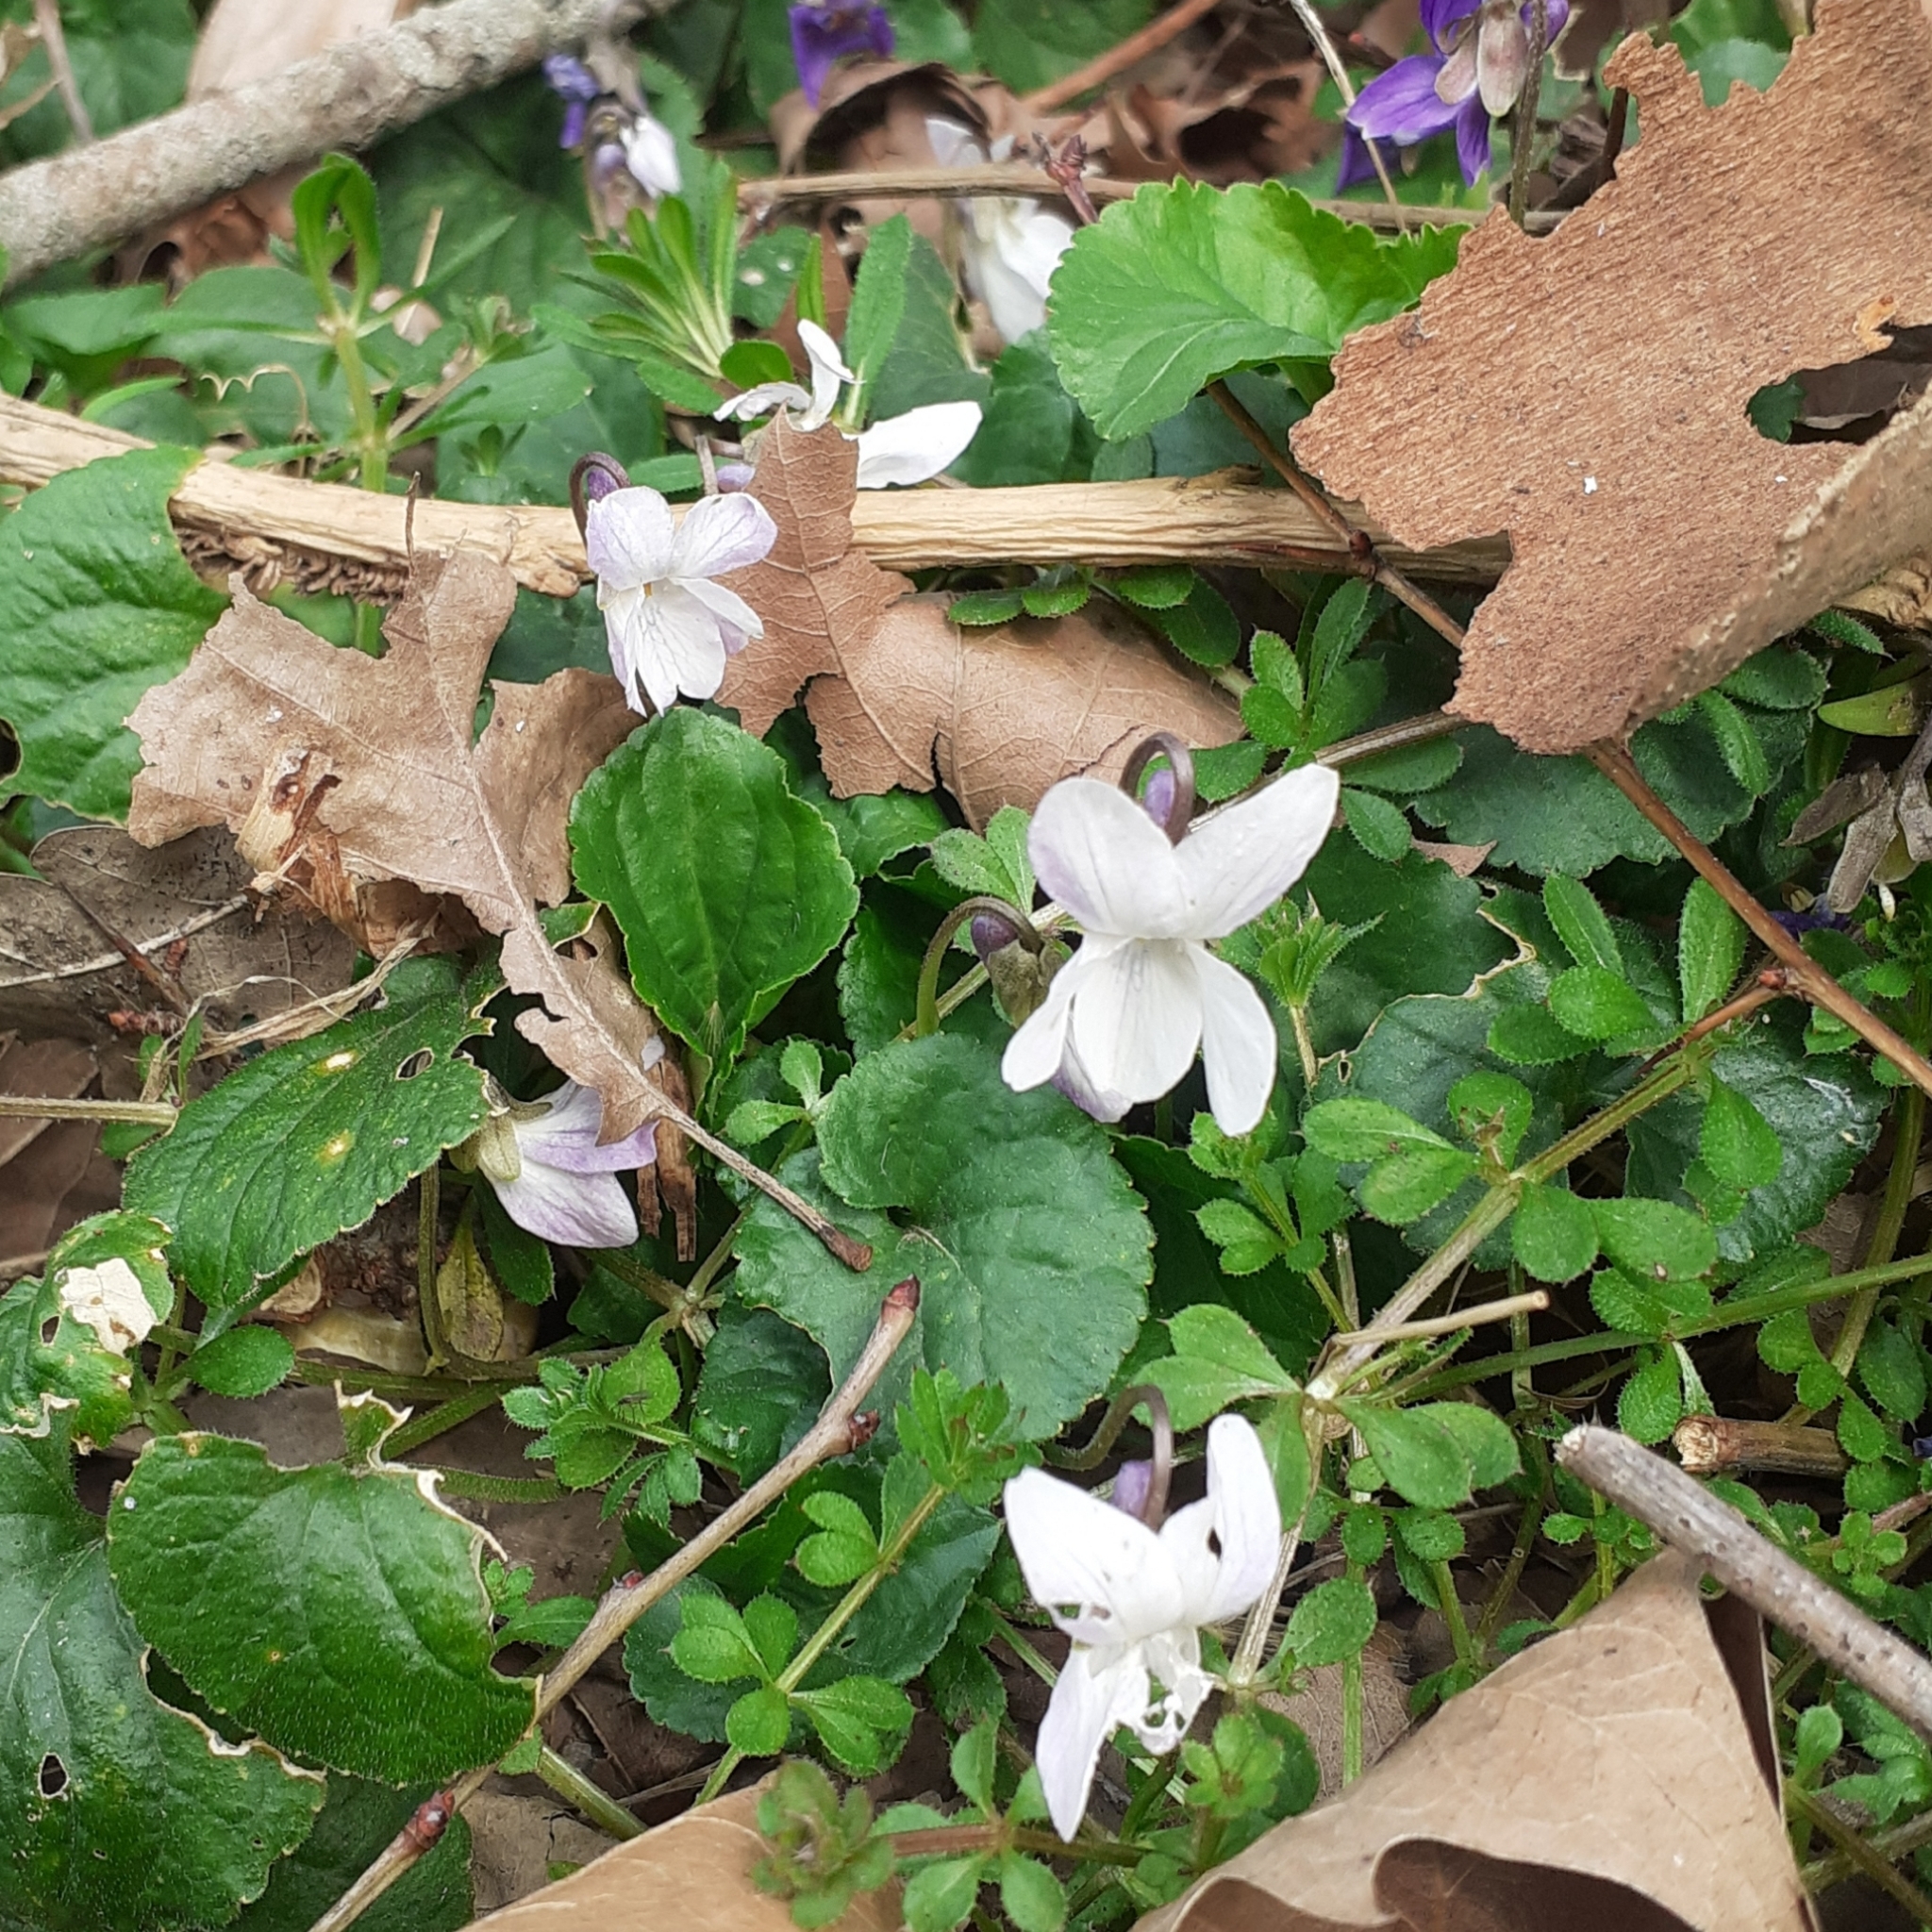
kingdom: Plantae
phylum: Tracheophyta
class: Magnoliopsida
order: Malpighiales
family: Violaceae
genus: Viola
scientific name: Viola alba
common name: White violet
